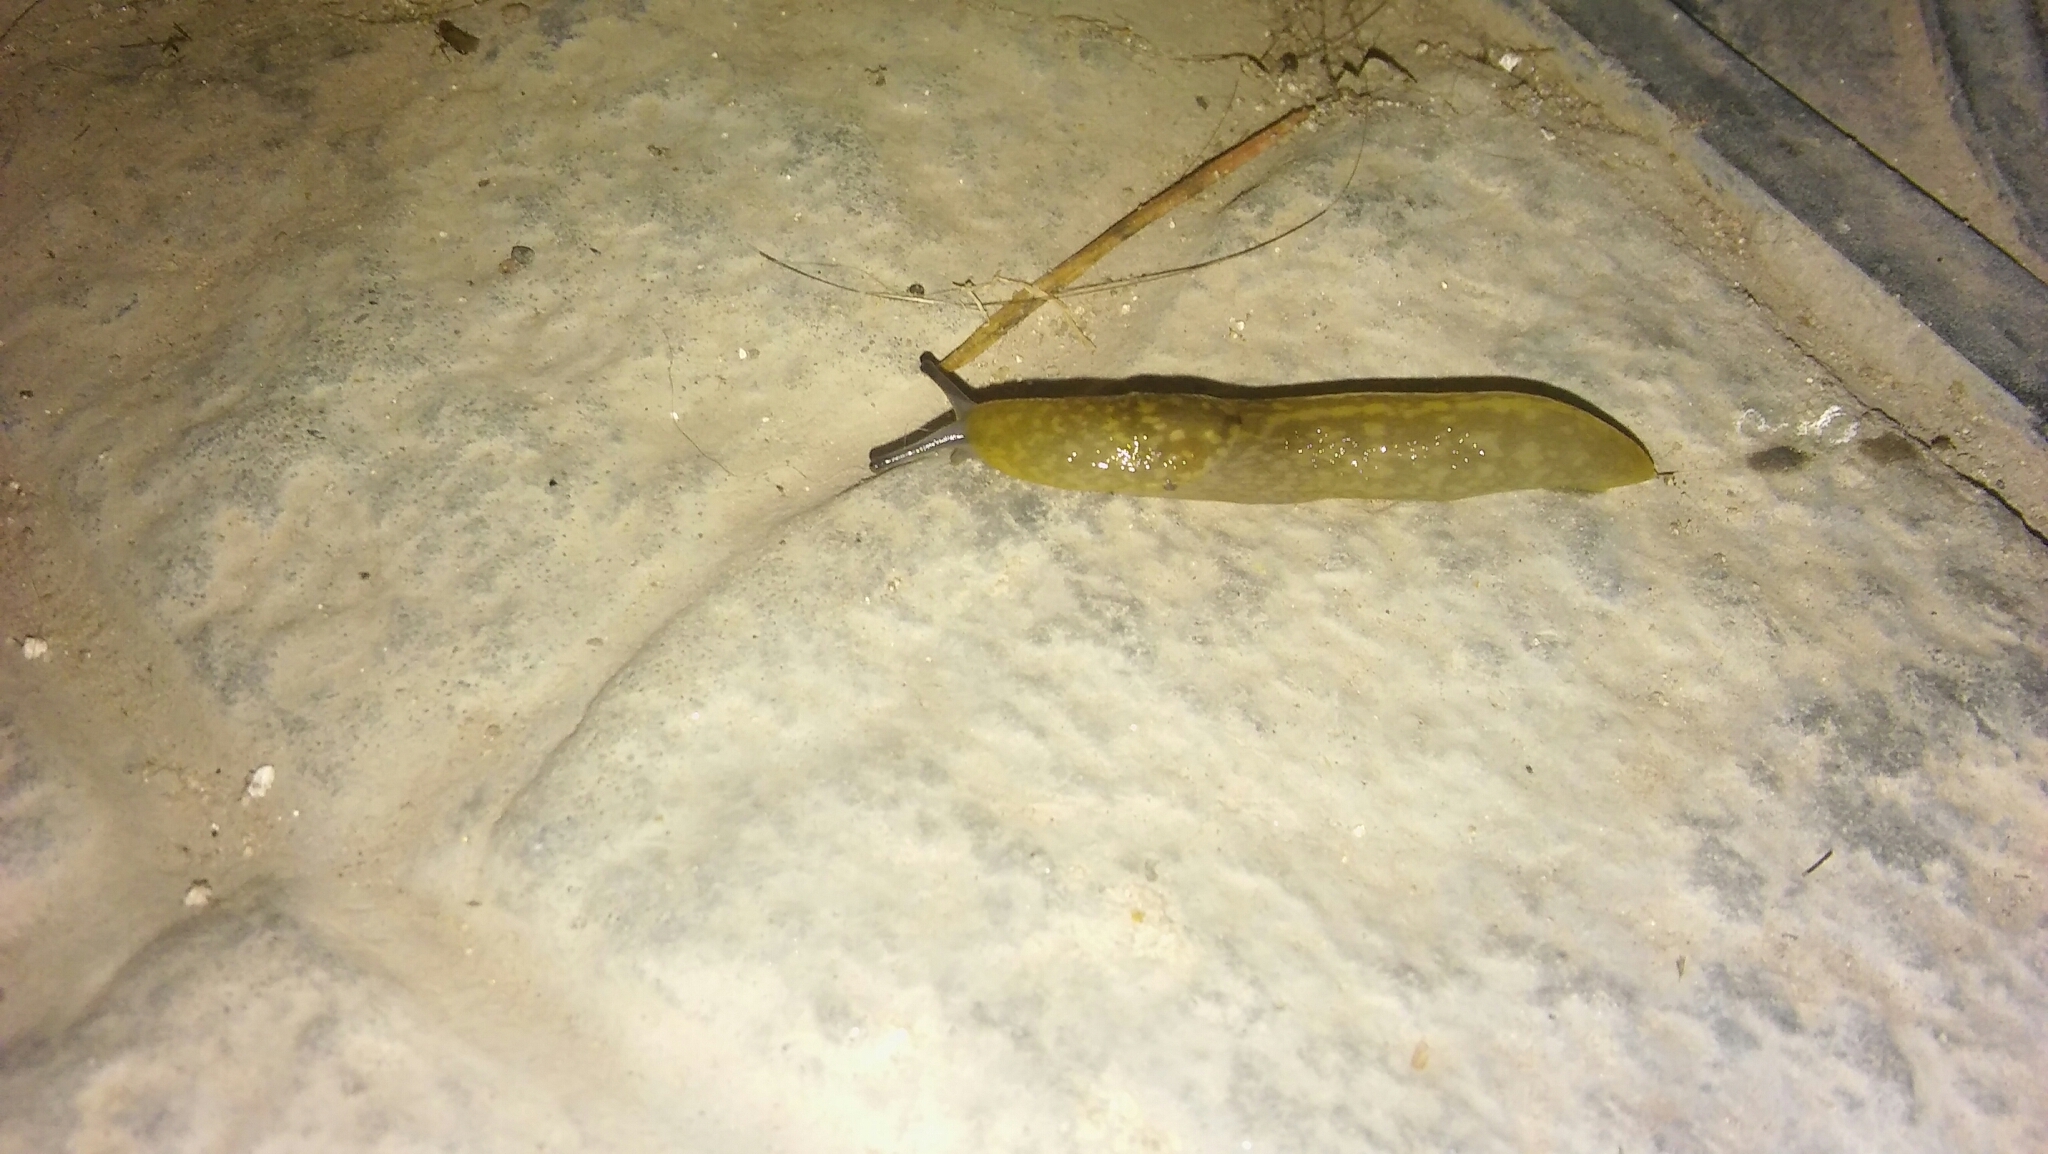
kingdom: Animalia
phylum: Mollusca
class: Gastropoda
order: Stylommatophora
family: Limacidae
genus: Limacus
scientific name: Limacus flavus
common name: Yellow gardenslug
